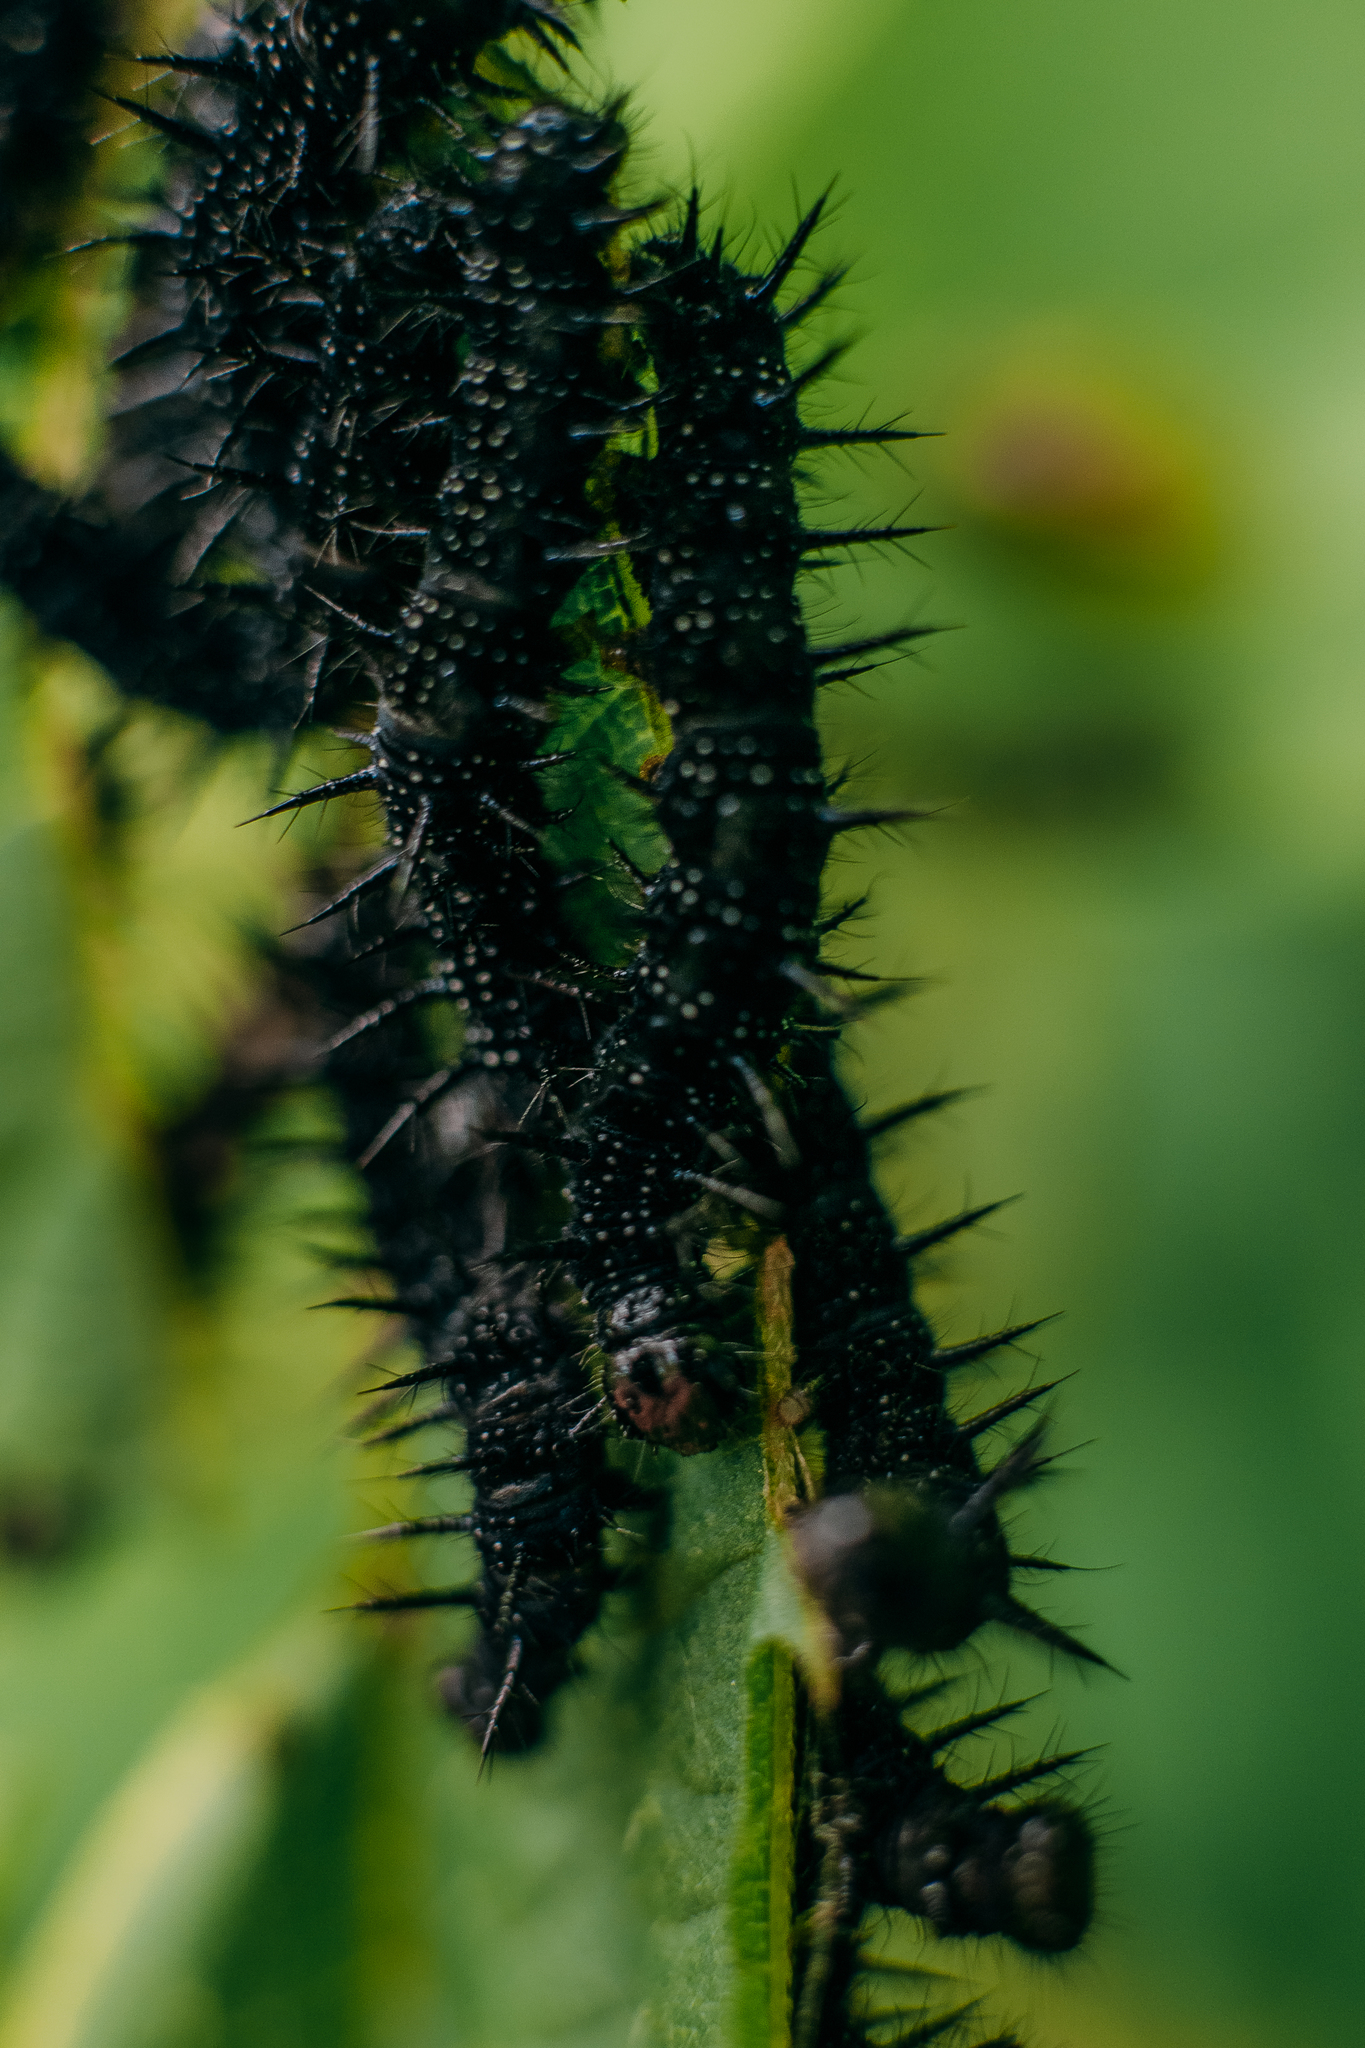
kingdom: Animalia
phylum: Arthropoda
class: Insecta
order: Lepidoptera
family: Nymphalidae
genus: Aglais
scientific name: Aglais io
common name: Peacock
